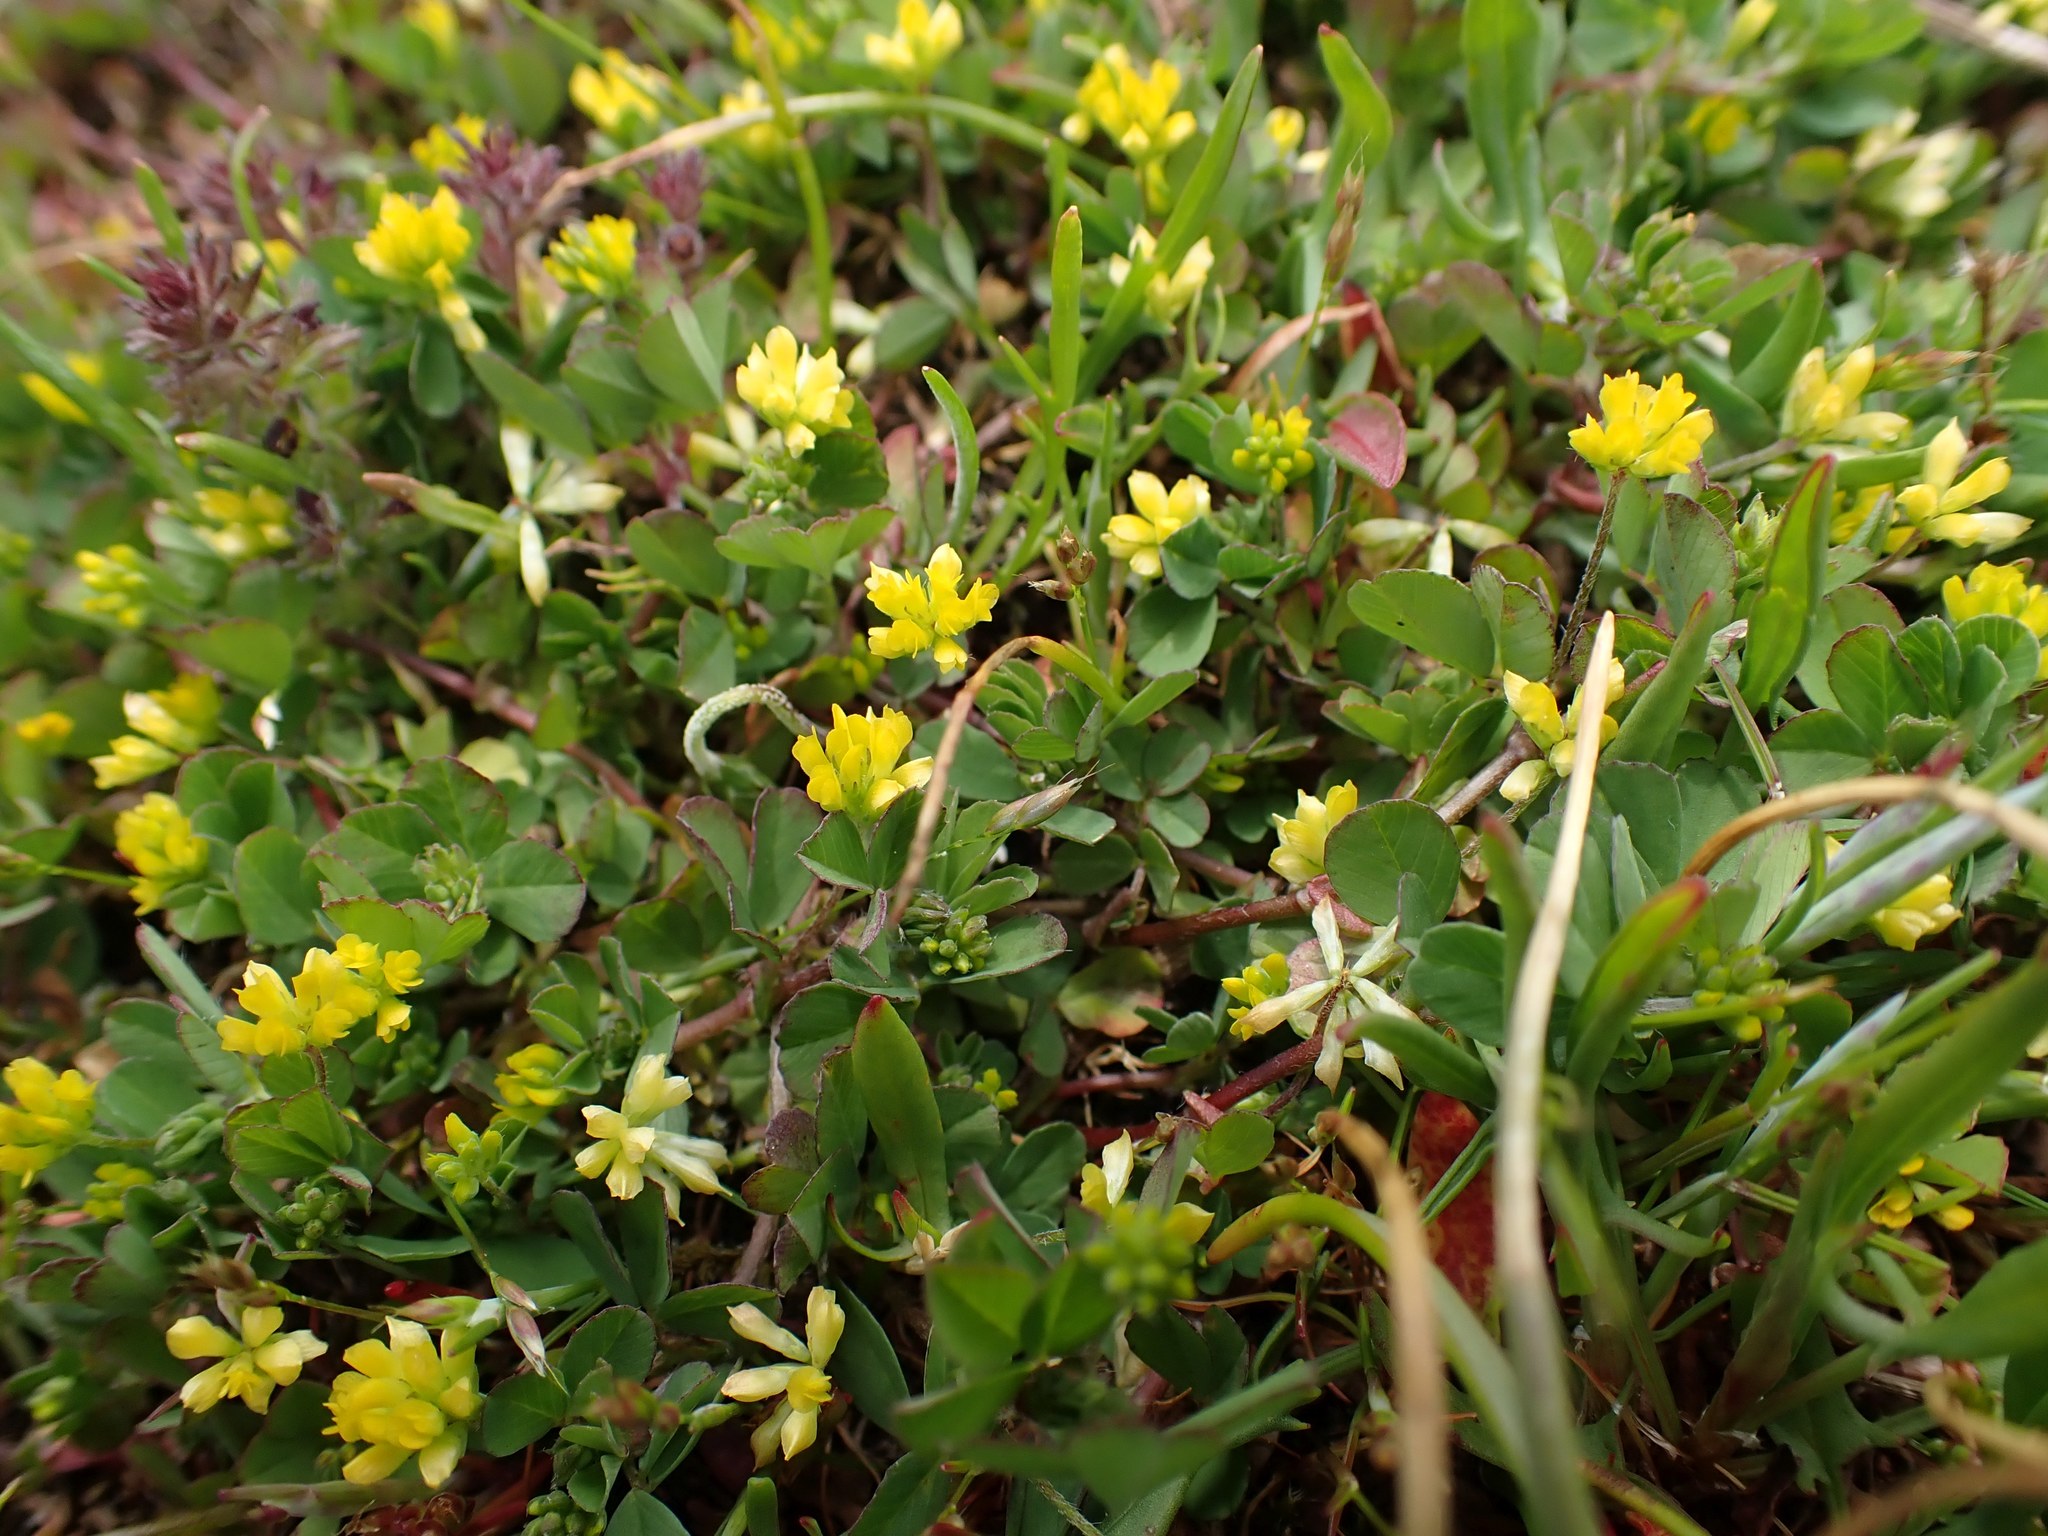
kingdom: Plantae
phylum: Tracheophyta
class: Magnoliopsida
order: Fabales
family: Fabaceae
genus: Trifolium
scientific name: Trifolium dubium
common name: Suckling clover
